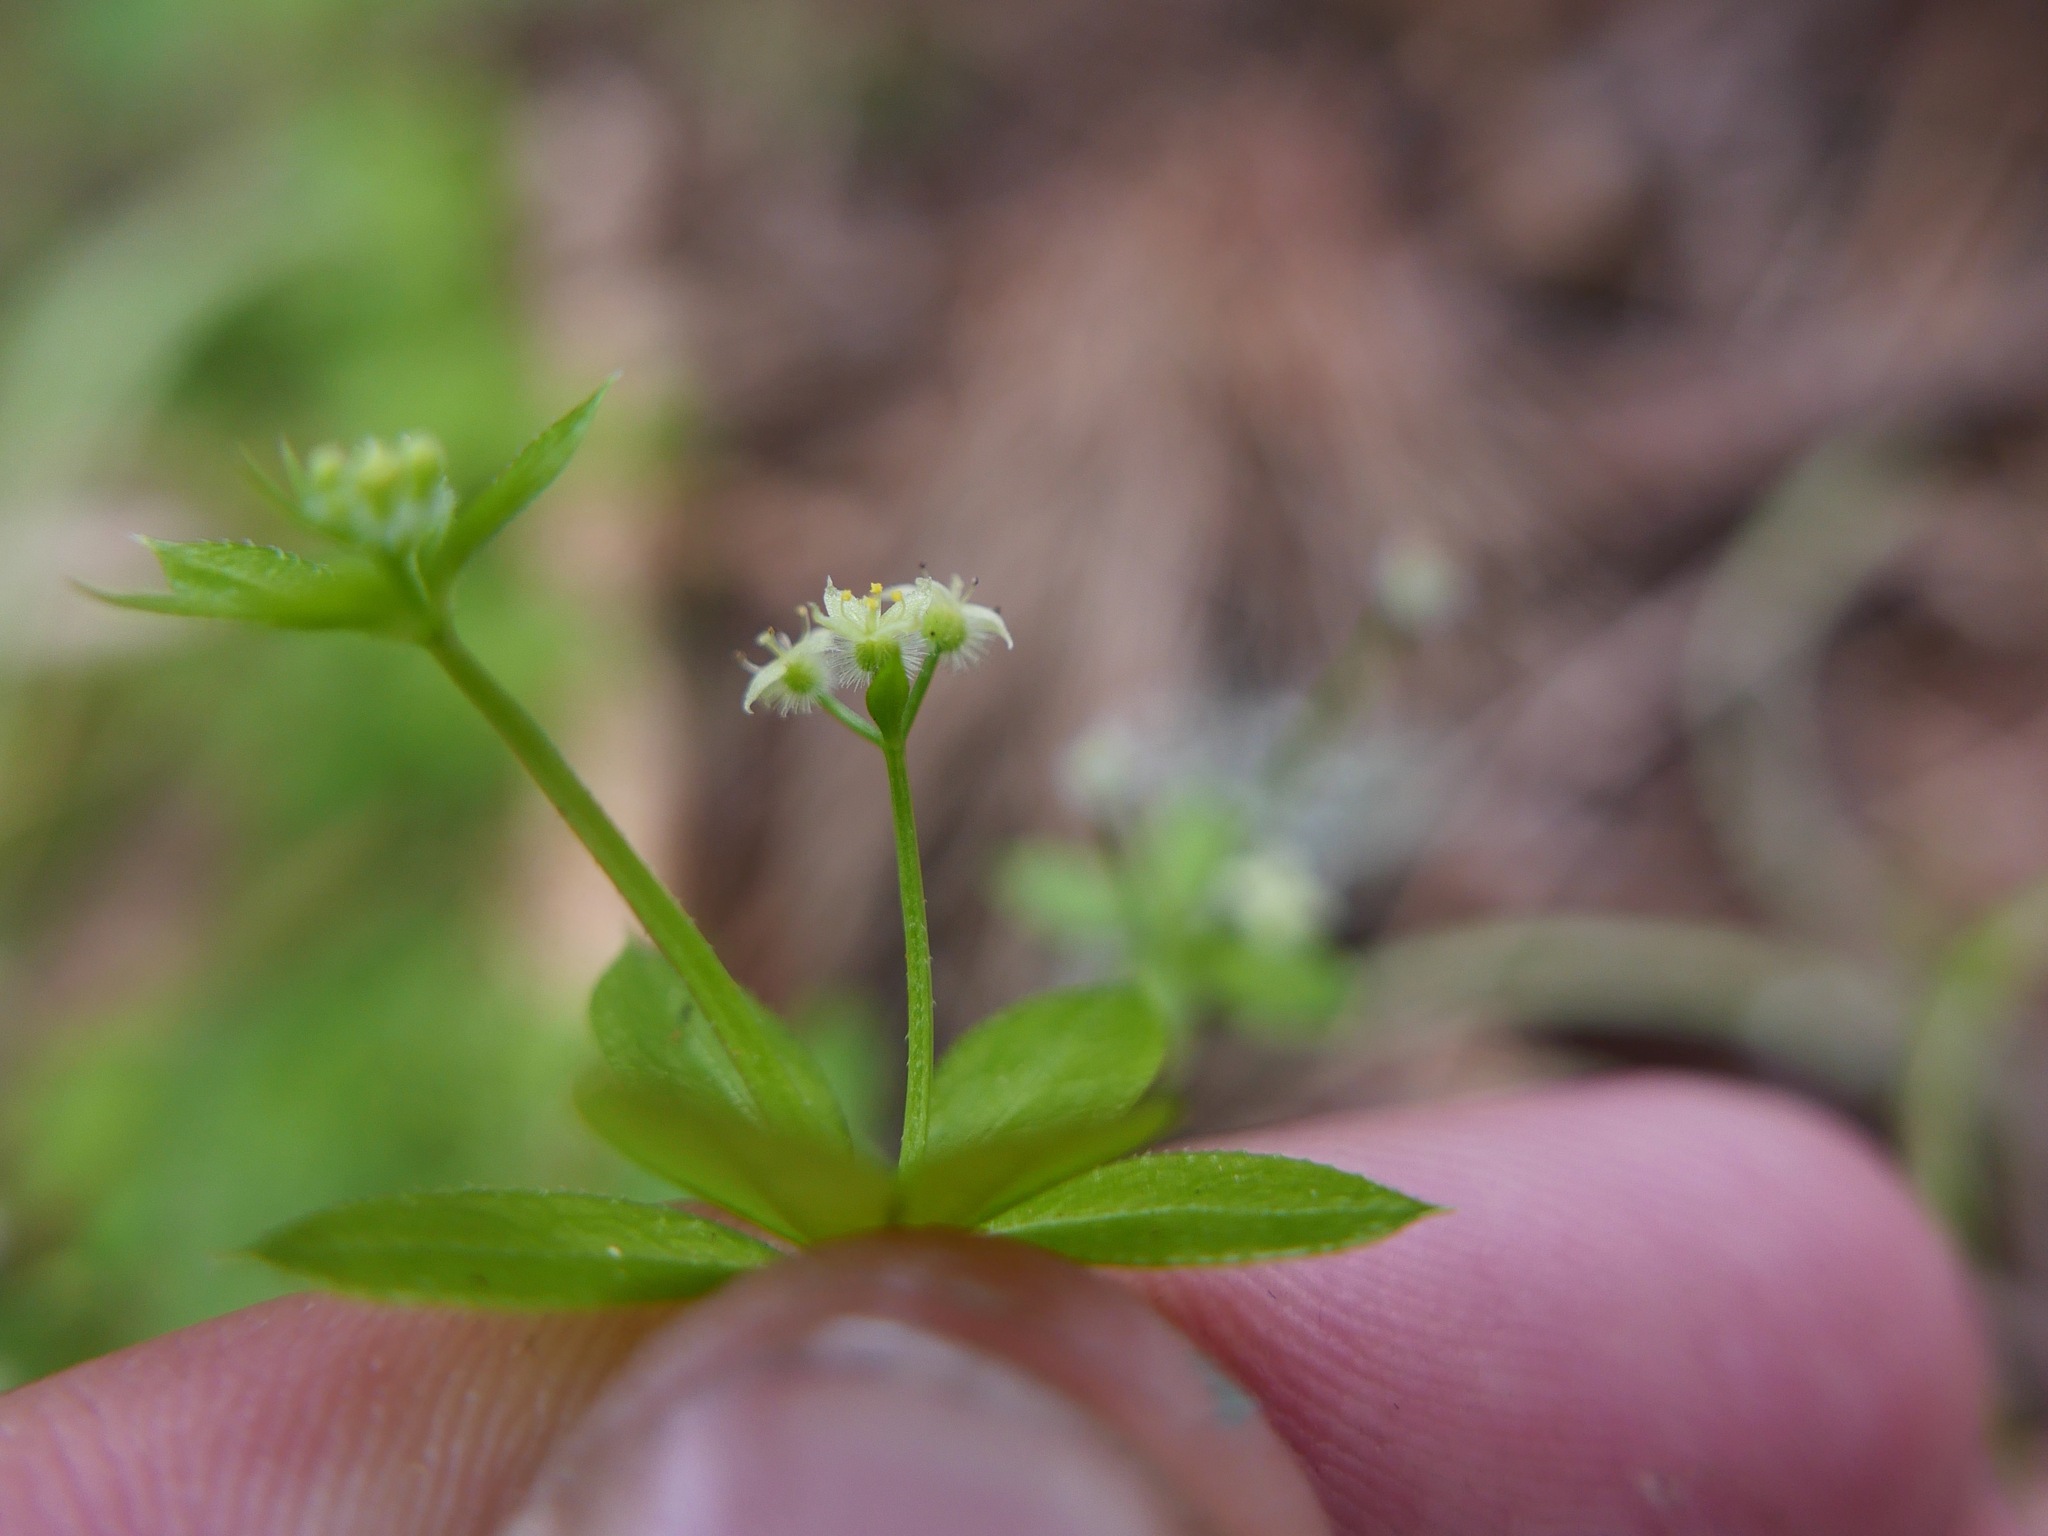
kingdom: Plantae
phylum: Tracheophyta
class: Magnoliopsida
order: Gentianales
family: Rubiaceae
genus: Galium
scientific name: Galium triflorum
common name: Fragrant bedstraw
